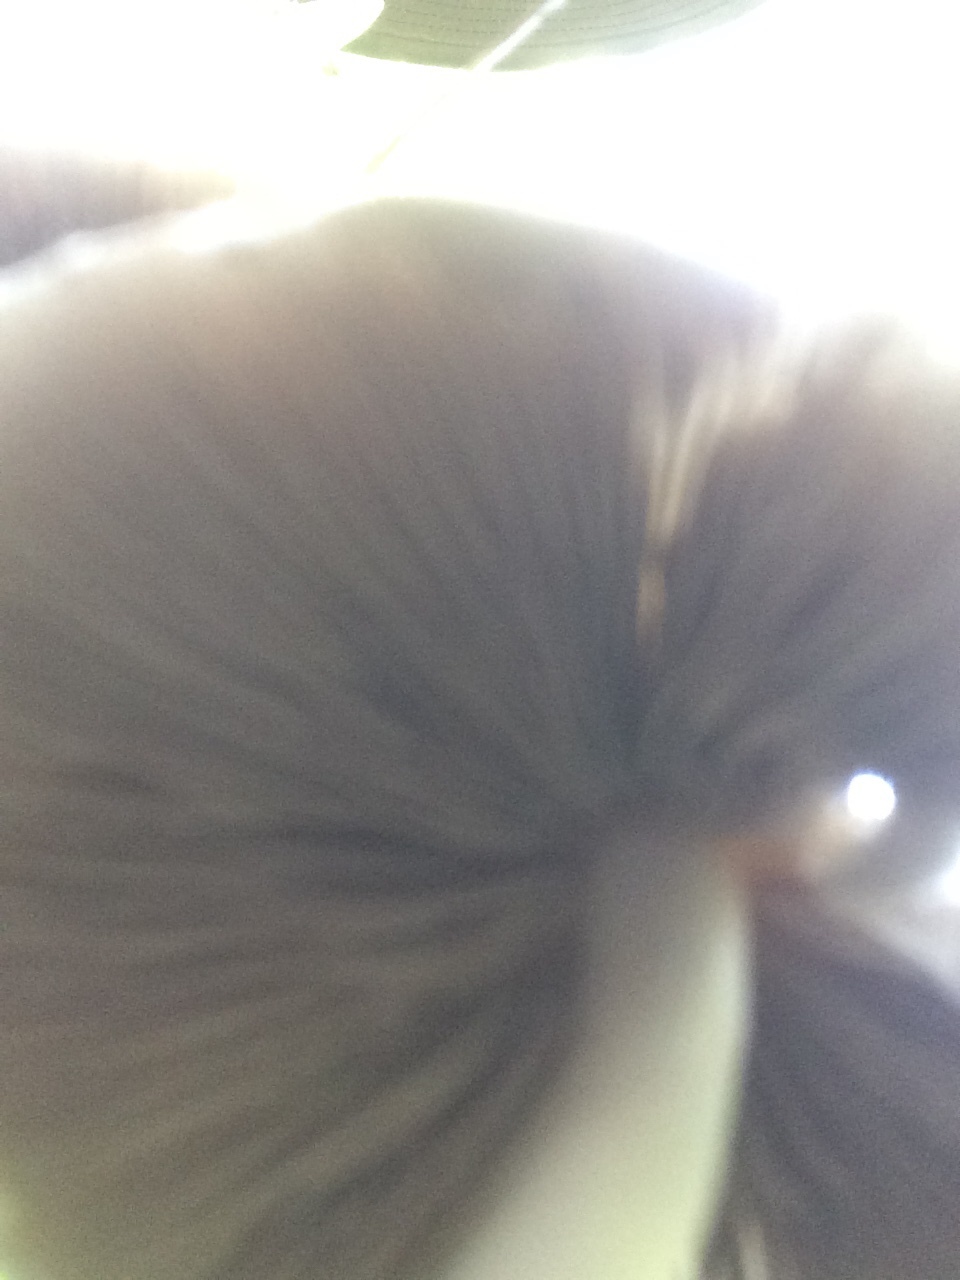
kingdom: Fungi
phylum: Basidiomycota
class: Agaricomycetes
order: Agaricales
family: Psathyrellaceae
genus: Candolleomyces
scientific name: Candolleomyces candolleanus
